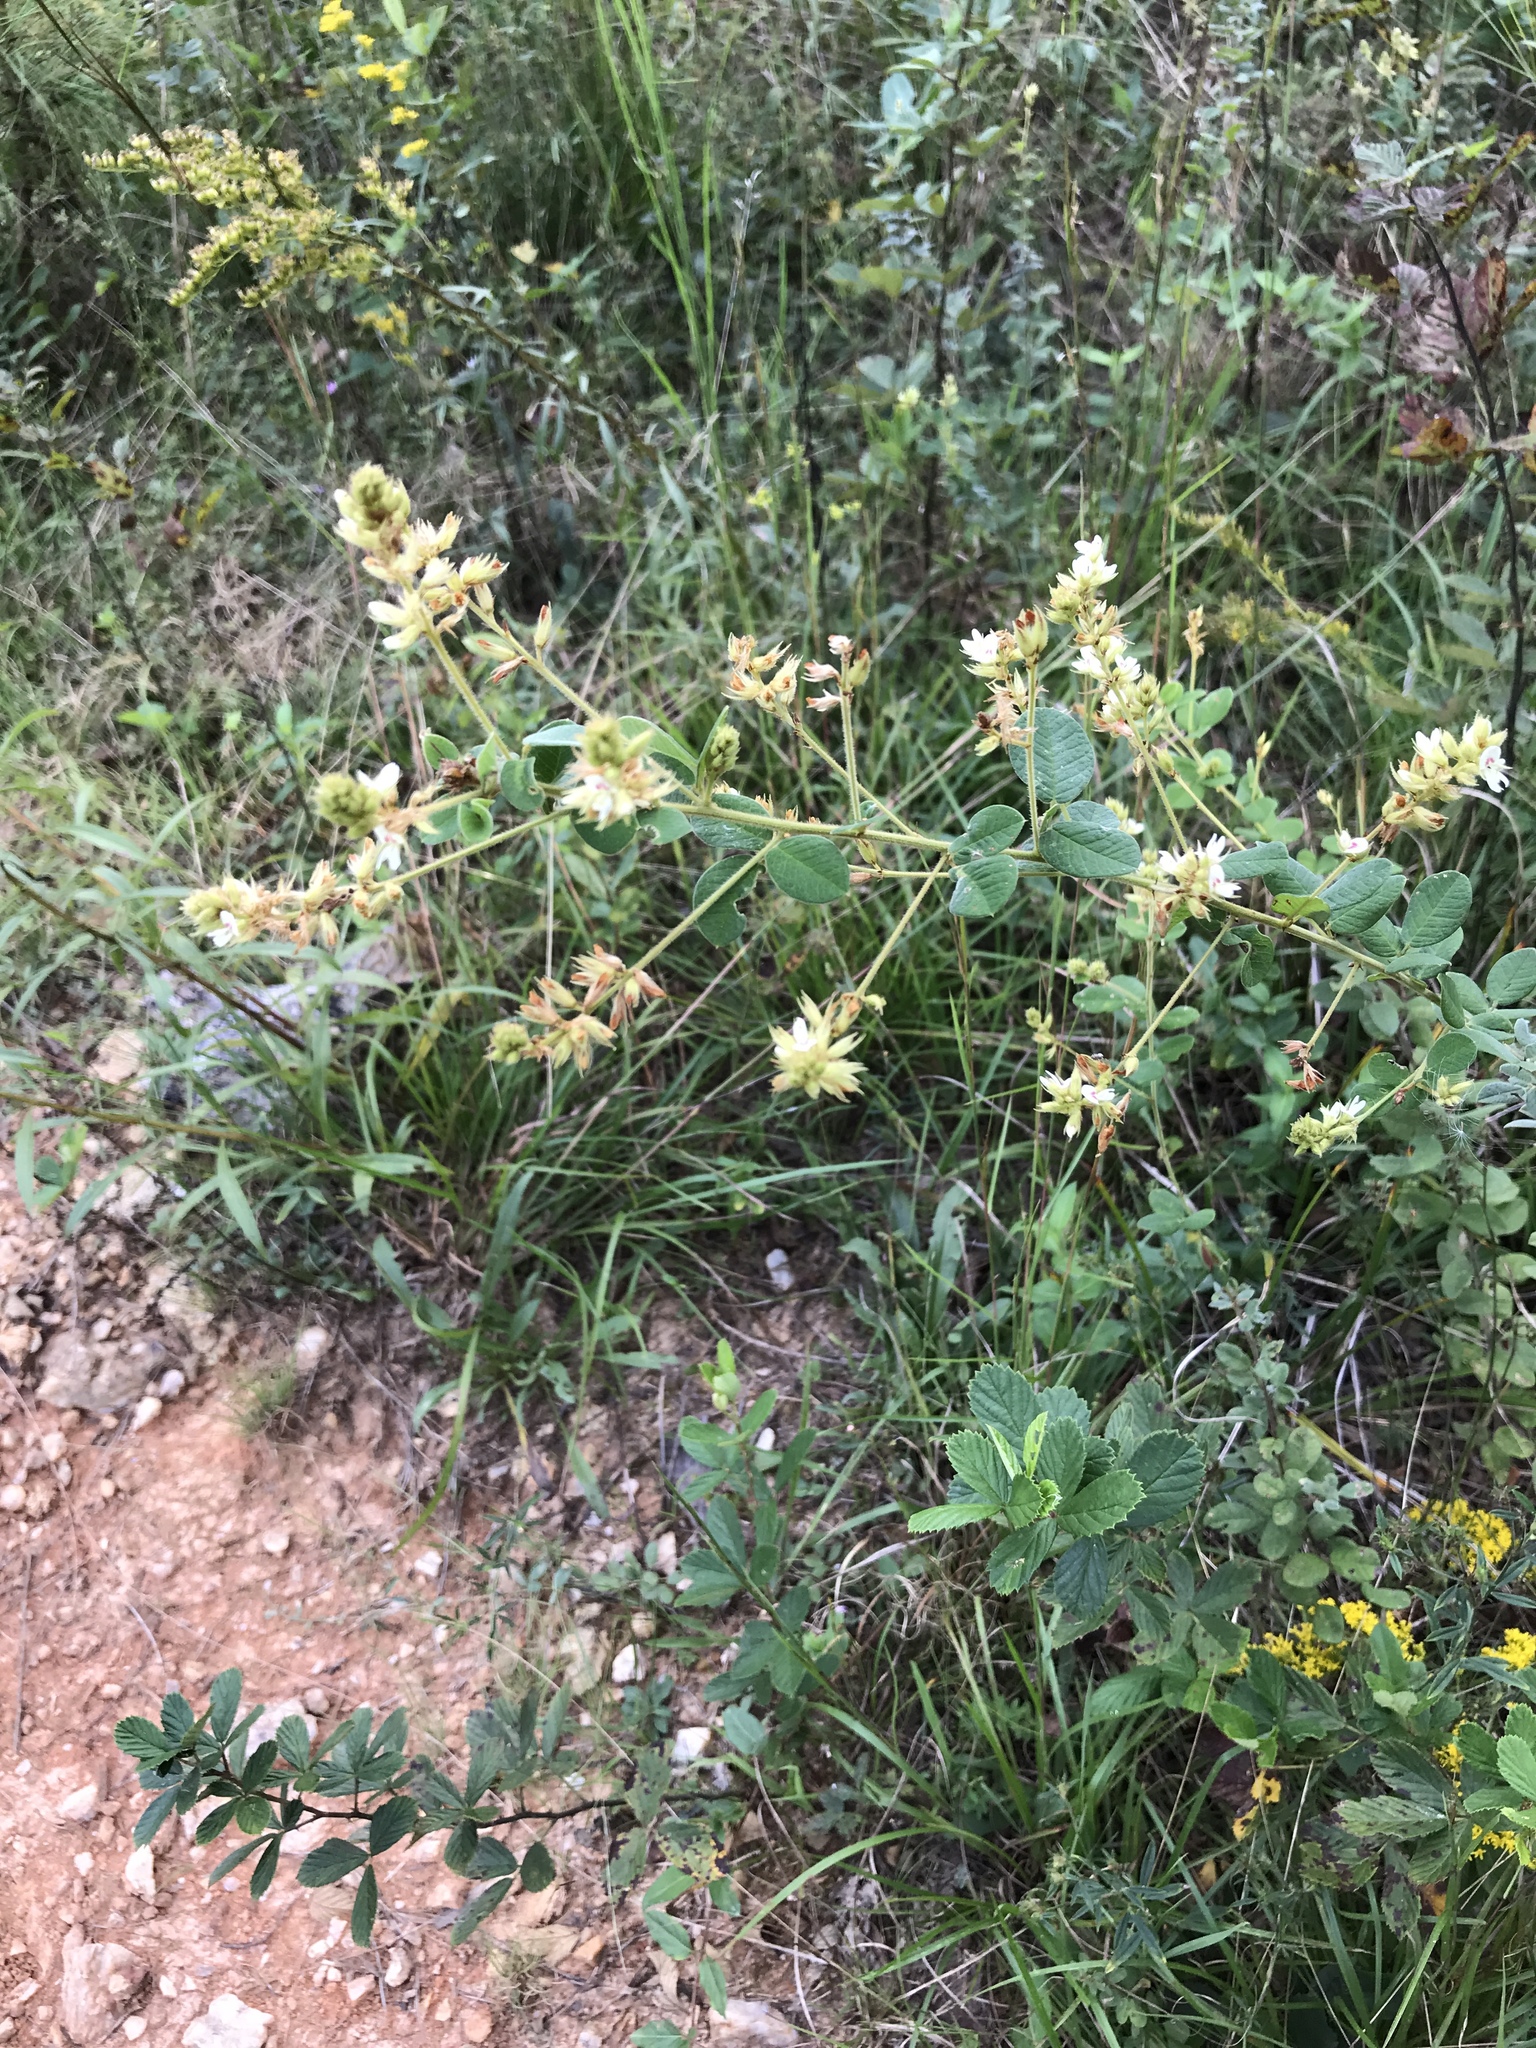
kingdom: Plantae
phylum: Tracheophyta
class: Magnoliopsida
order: Fabales
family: Fabaceae
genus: Lespedeza
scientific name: Lespedeza hirta
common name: Hairy lespedeza
